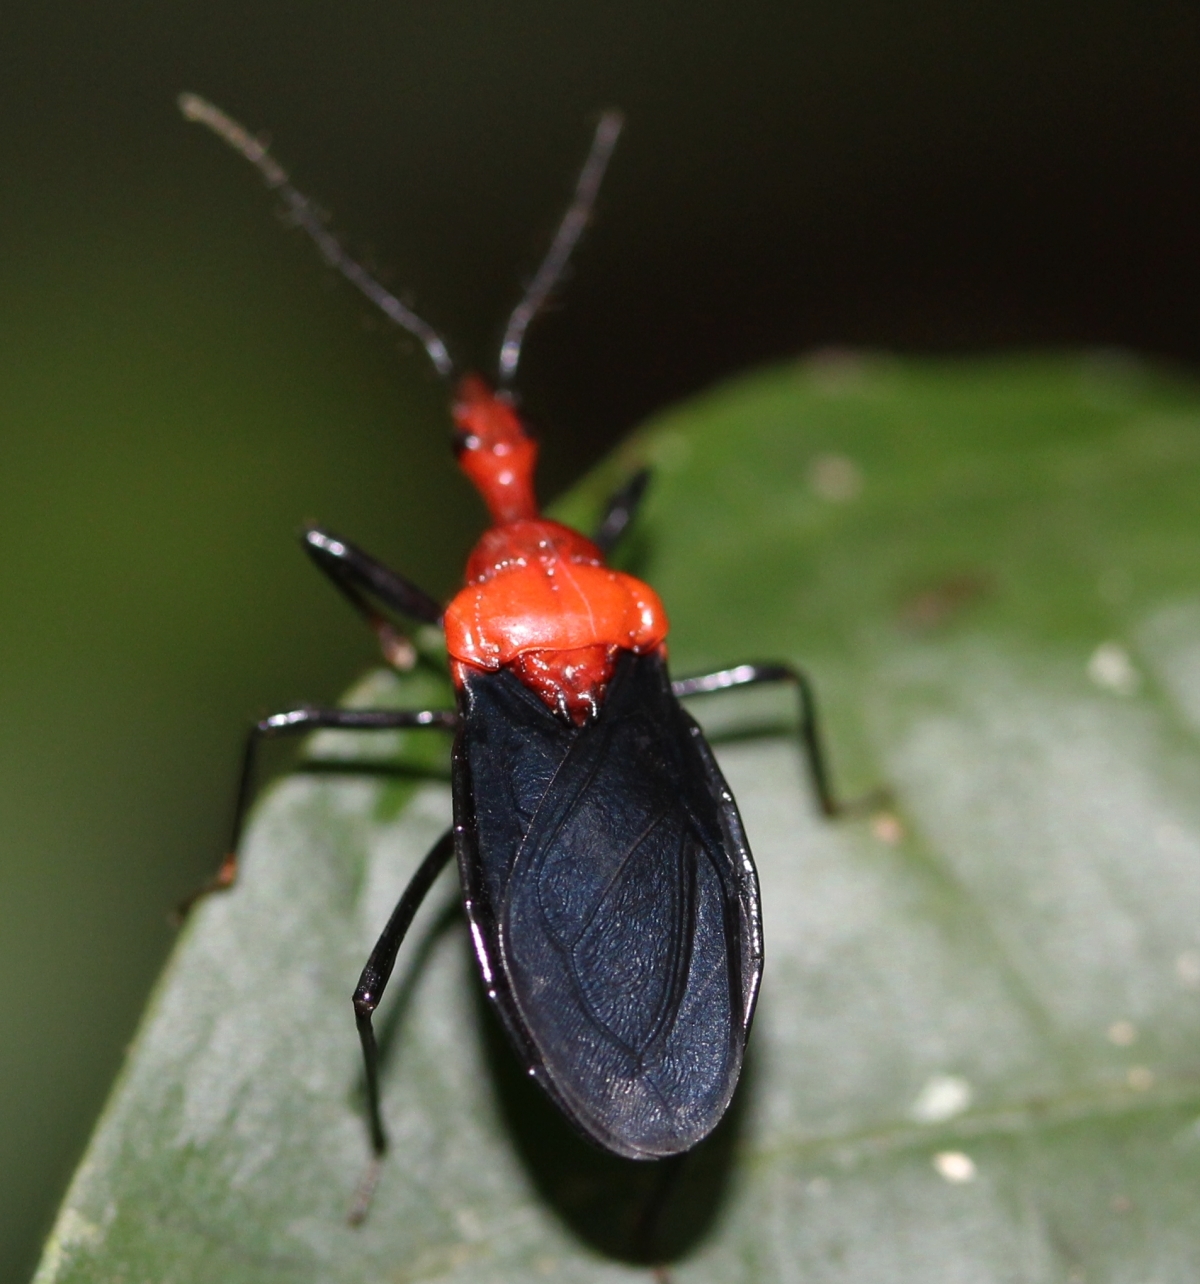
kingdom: Animalia
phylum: Arthropoda
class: Insecta
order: Hemiptera
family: Reduviidae
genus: Pothea
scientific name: Pothea
